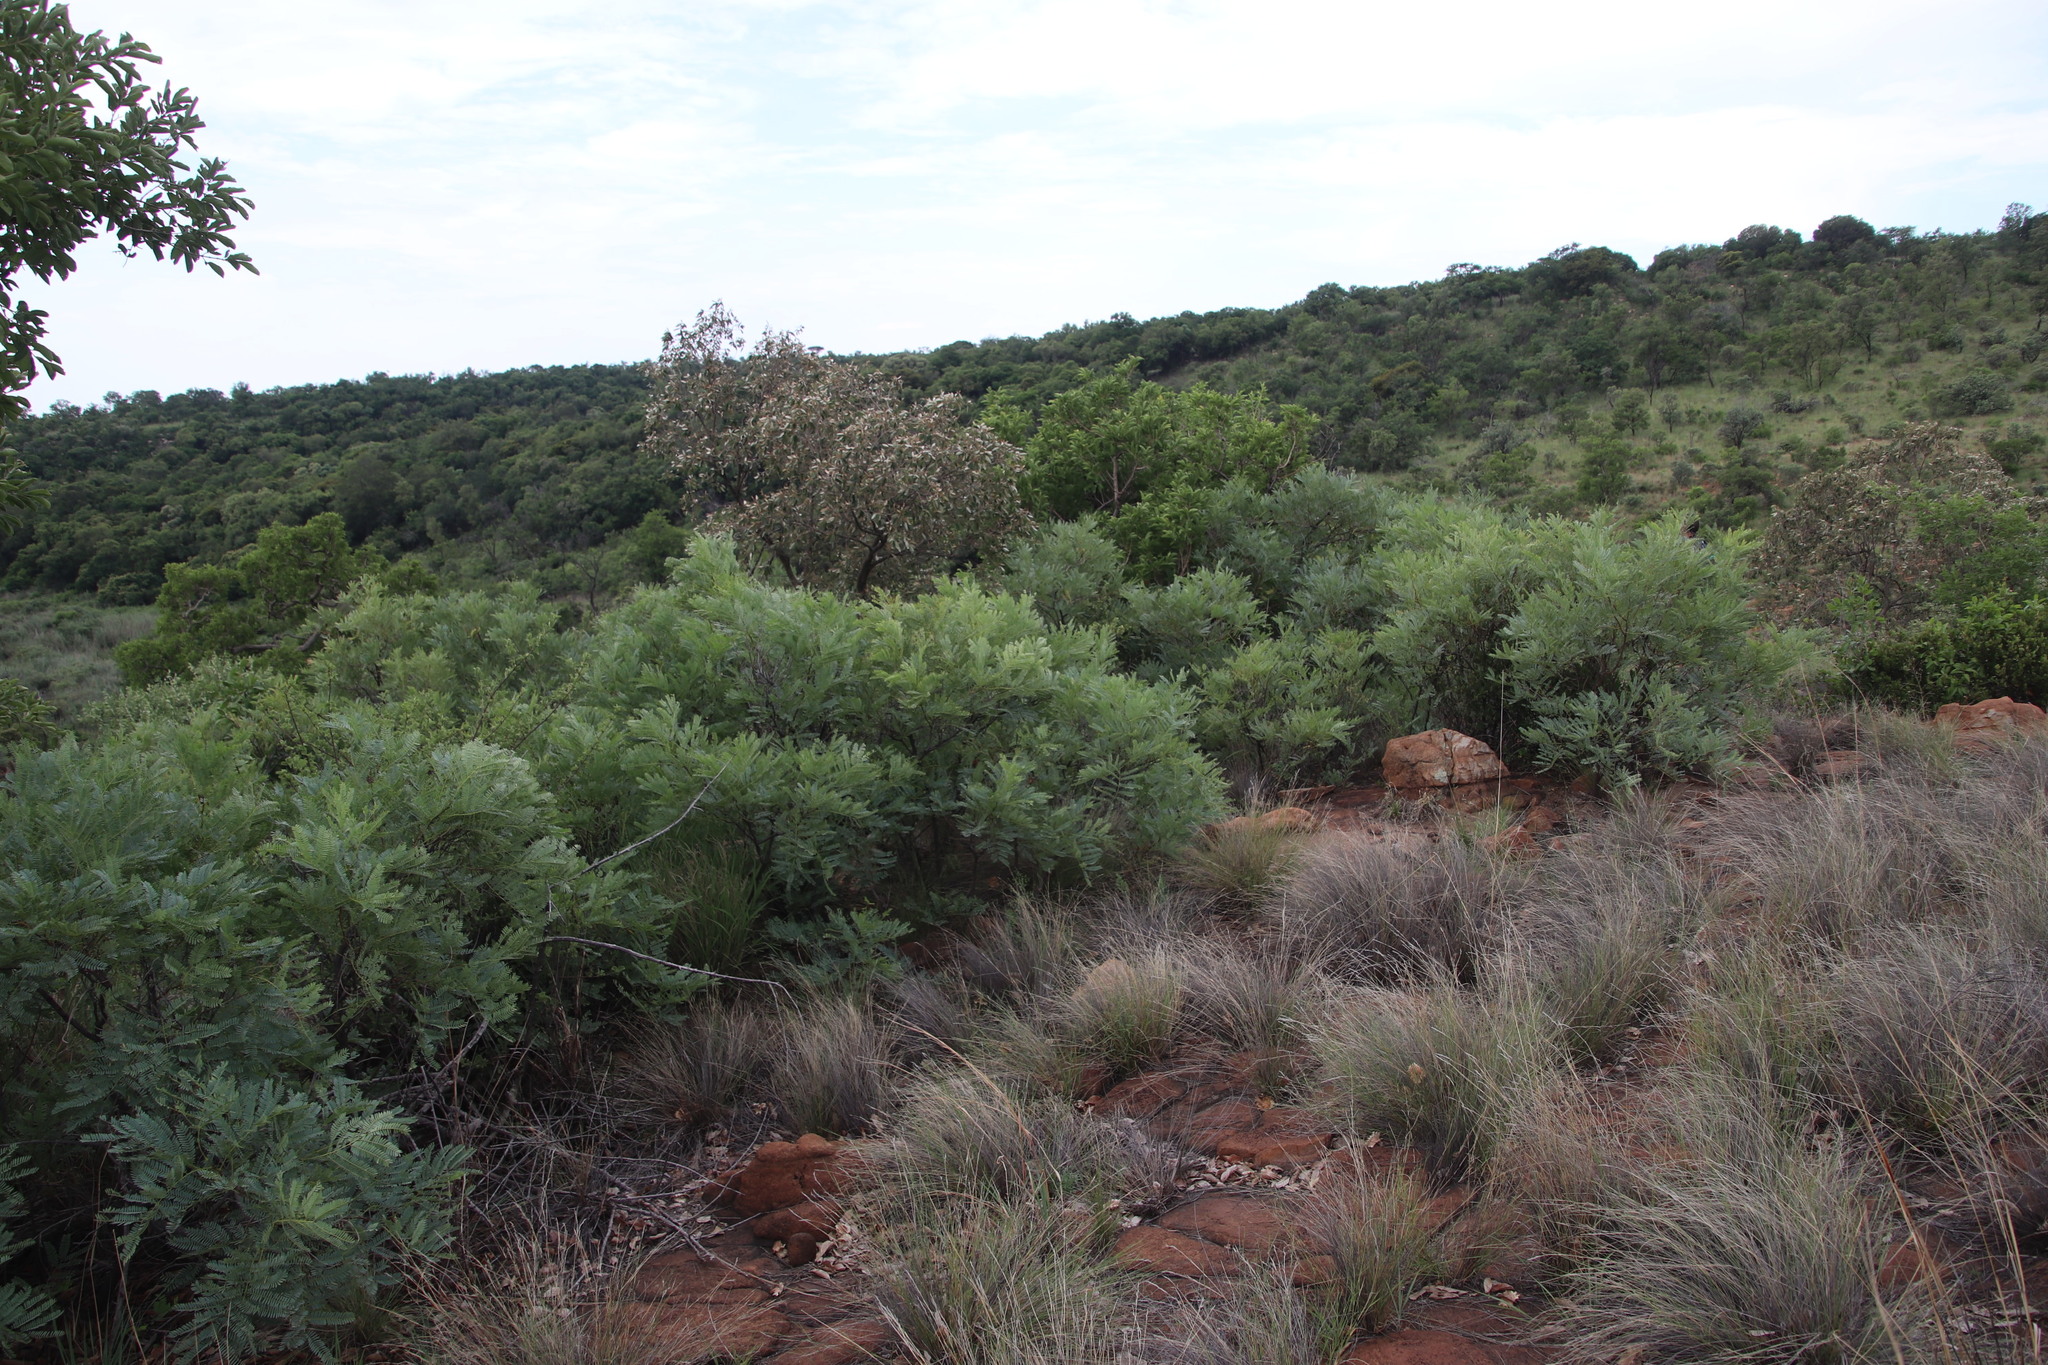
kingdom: Plantae
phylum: Tracheophyta
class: Magnoliopsida
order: Fabales
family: Fabaceae
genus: Elephantorrhiza
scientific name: Elephantorrhiza burkei
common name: Broad-pod elephant-root
